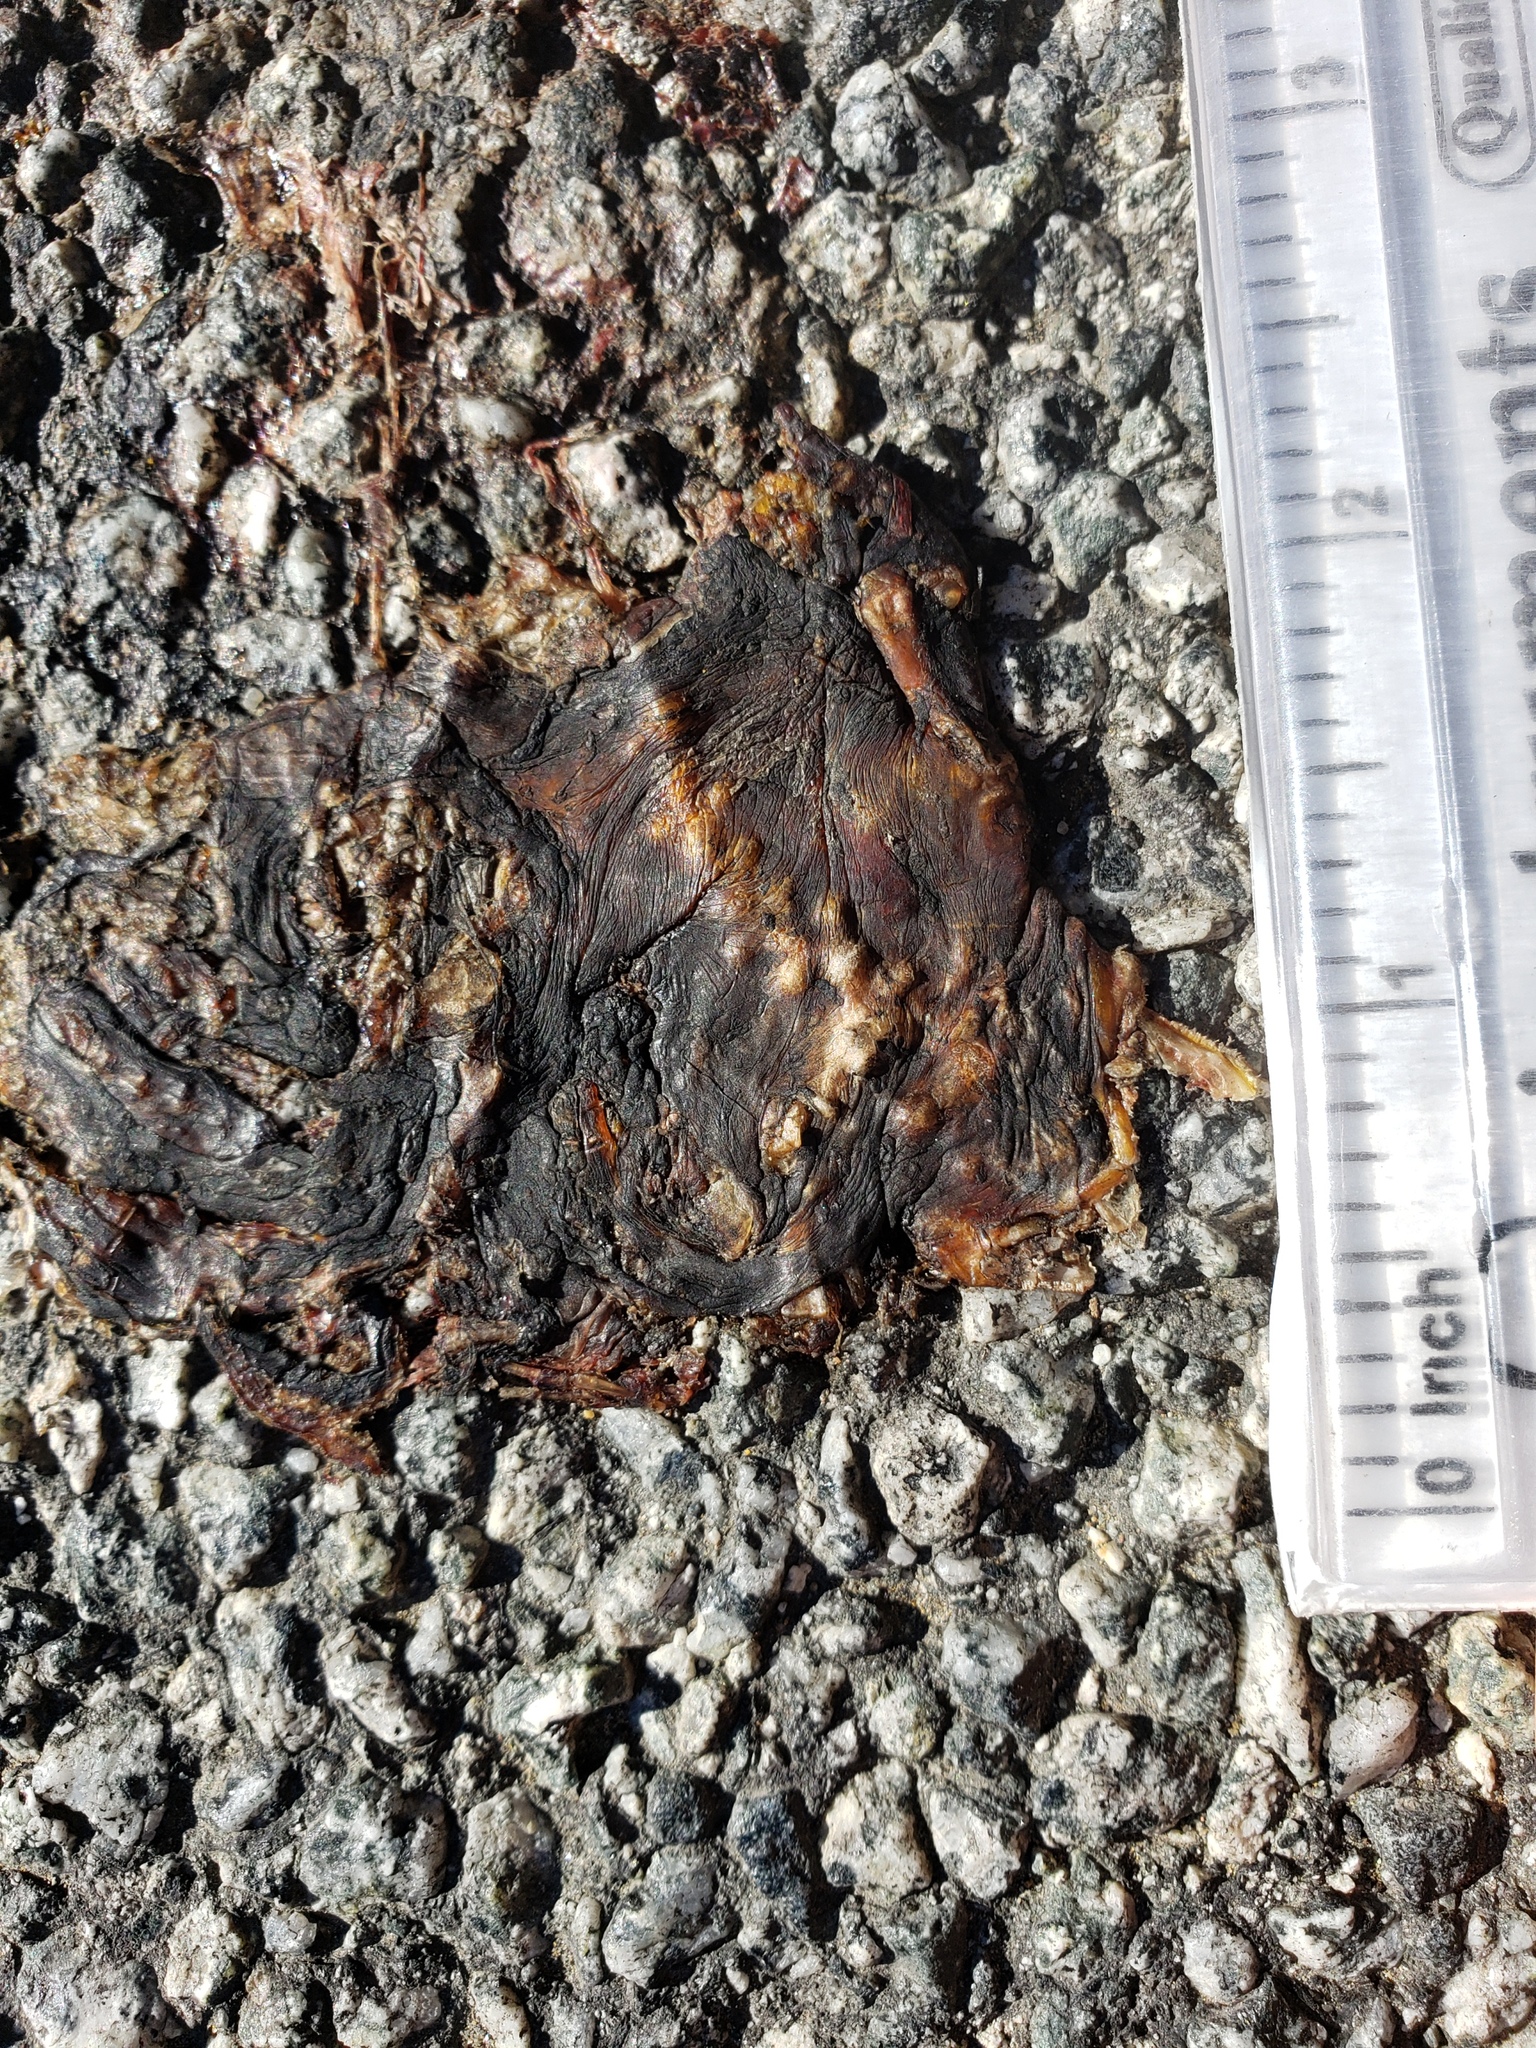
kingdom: Animalia
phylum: Chordata
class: Amphibia
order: Caudata
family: Salamandridae
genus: Taricha
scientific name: Taricha
